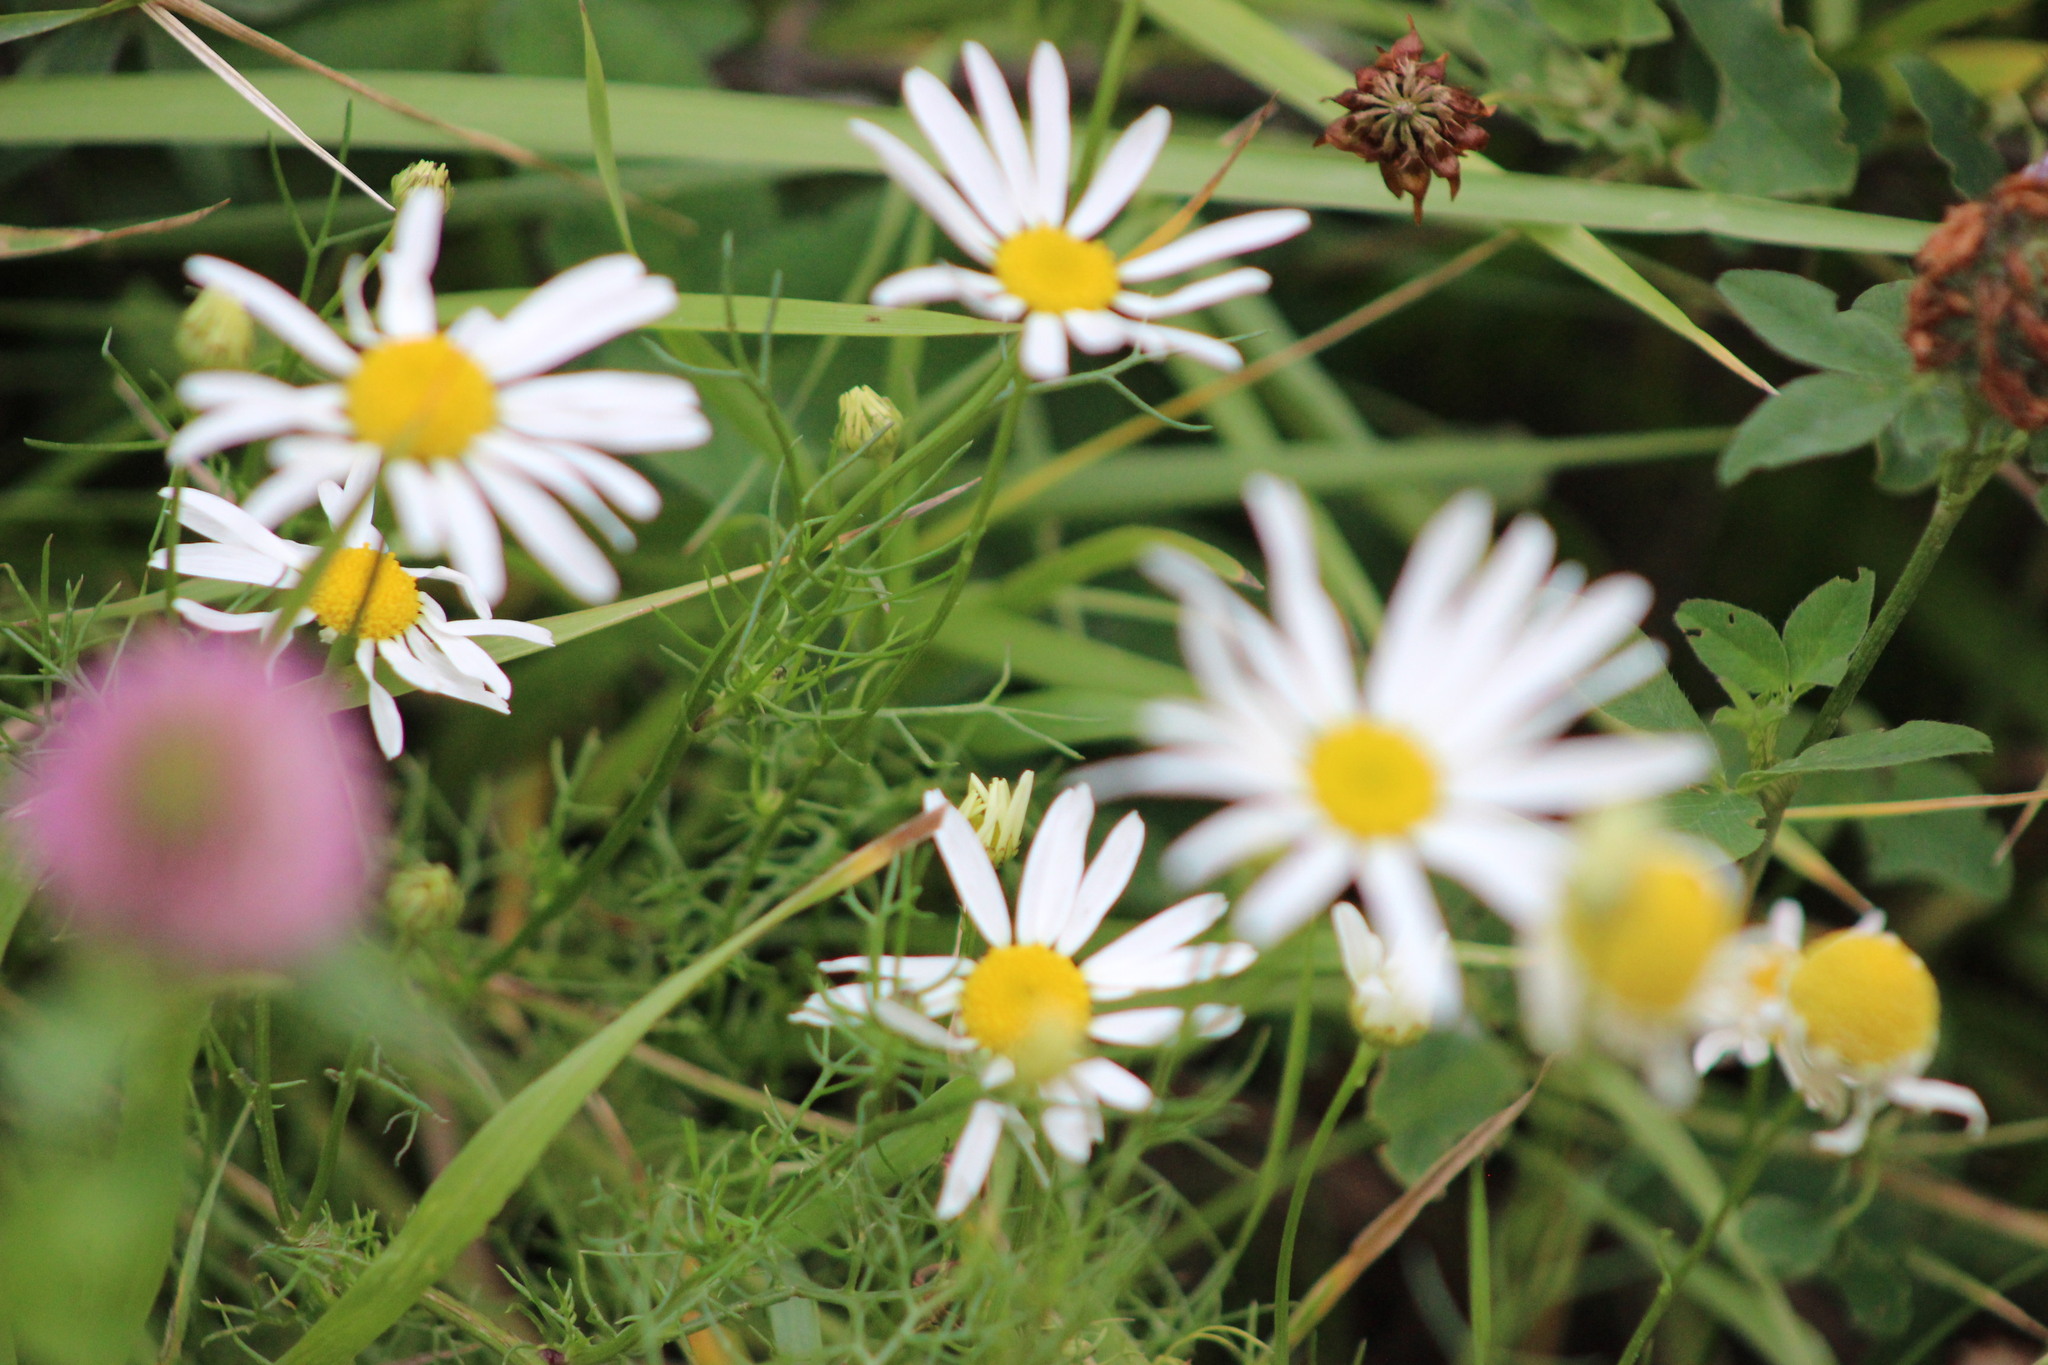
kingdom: Plantae
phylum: Tracheophyta
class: Magnoliopsida
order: Asterales
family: Asteraceae
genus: Tripleurospermum
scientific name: Tripleurospermum inodorum
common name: Scentless mayweed
